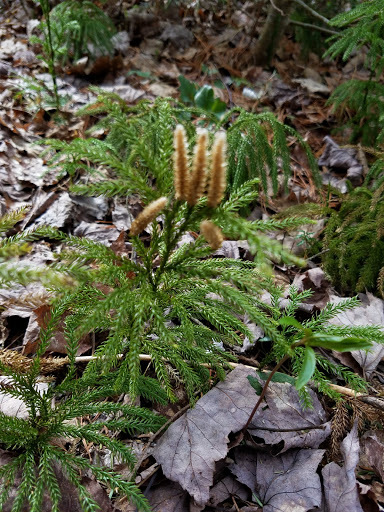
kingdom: Plantae
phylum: Tracheophyta
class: Lycopodiopsida
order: Lycopodiales
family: Lycopodiaceae
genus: Dendrolycopodium
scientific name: Dendrolycopodium hickeyi
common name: Hickey's clubmoss
